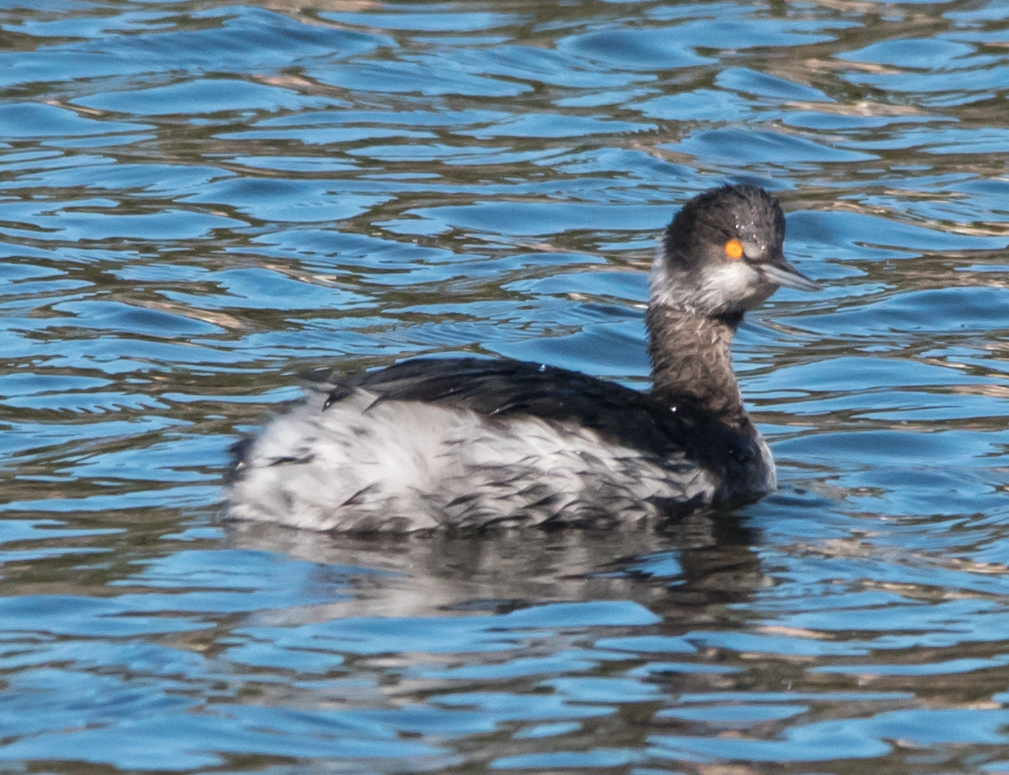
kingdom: Animalia
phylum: Chordata
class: Aves
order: Podicipediformes
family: Podicipedidae
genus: Podiceps
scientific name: Podiceps nigricollis
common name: Black-necked grebe
